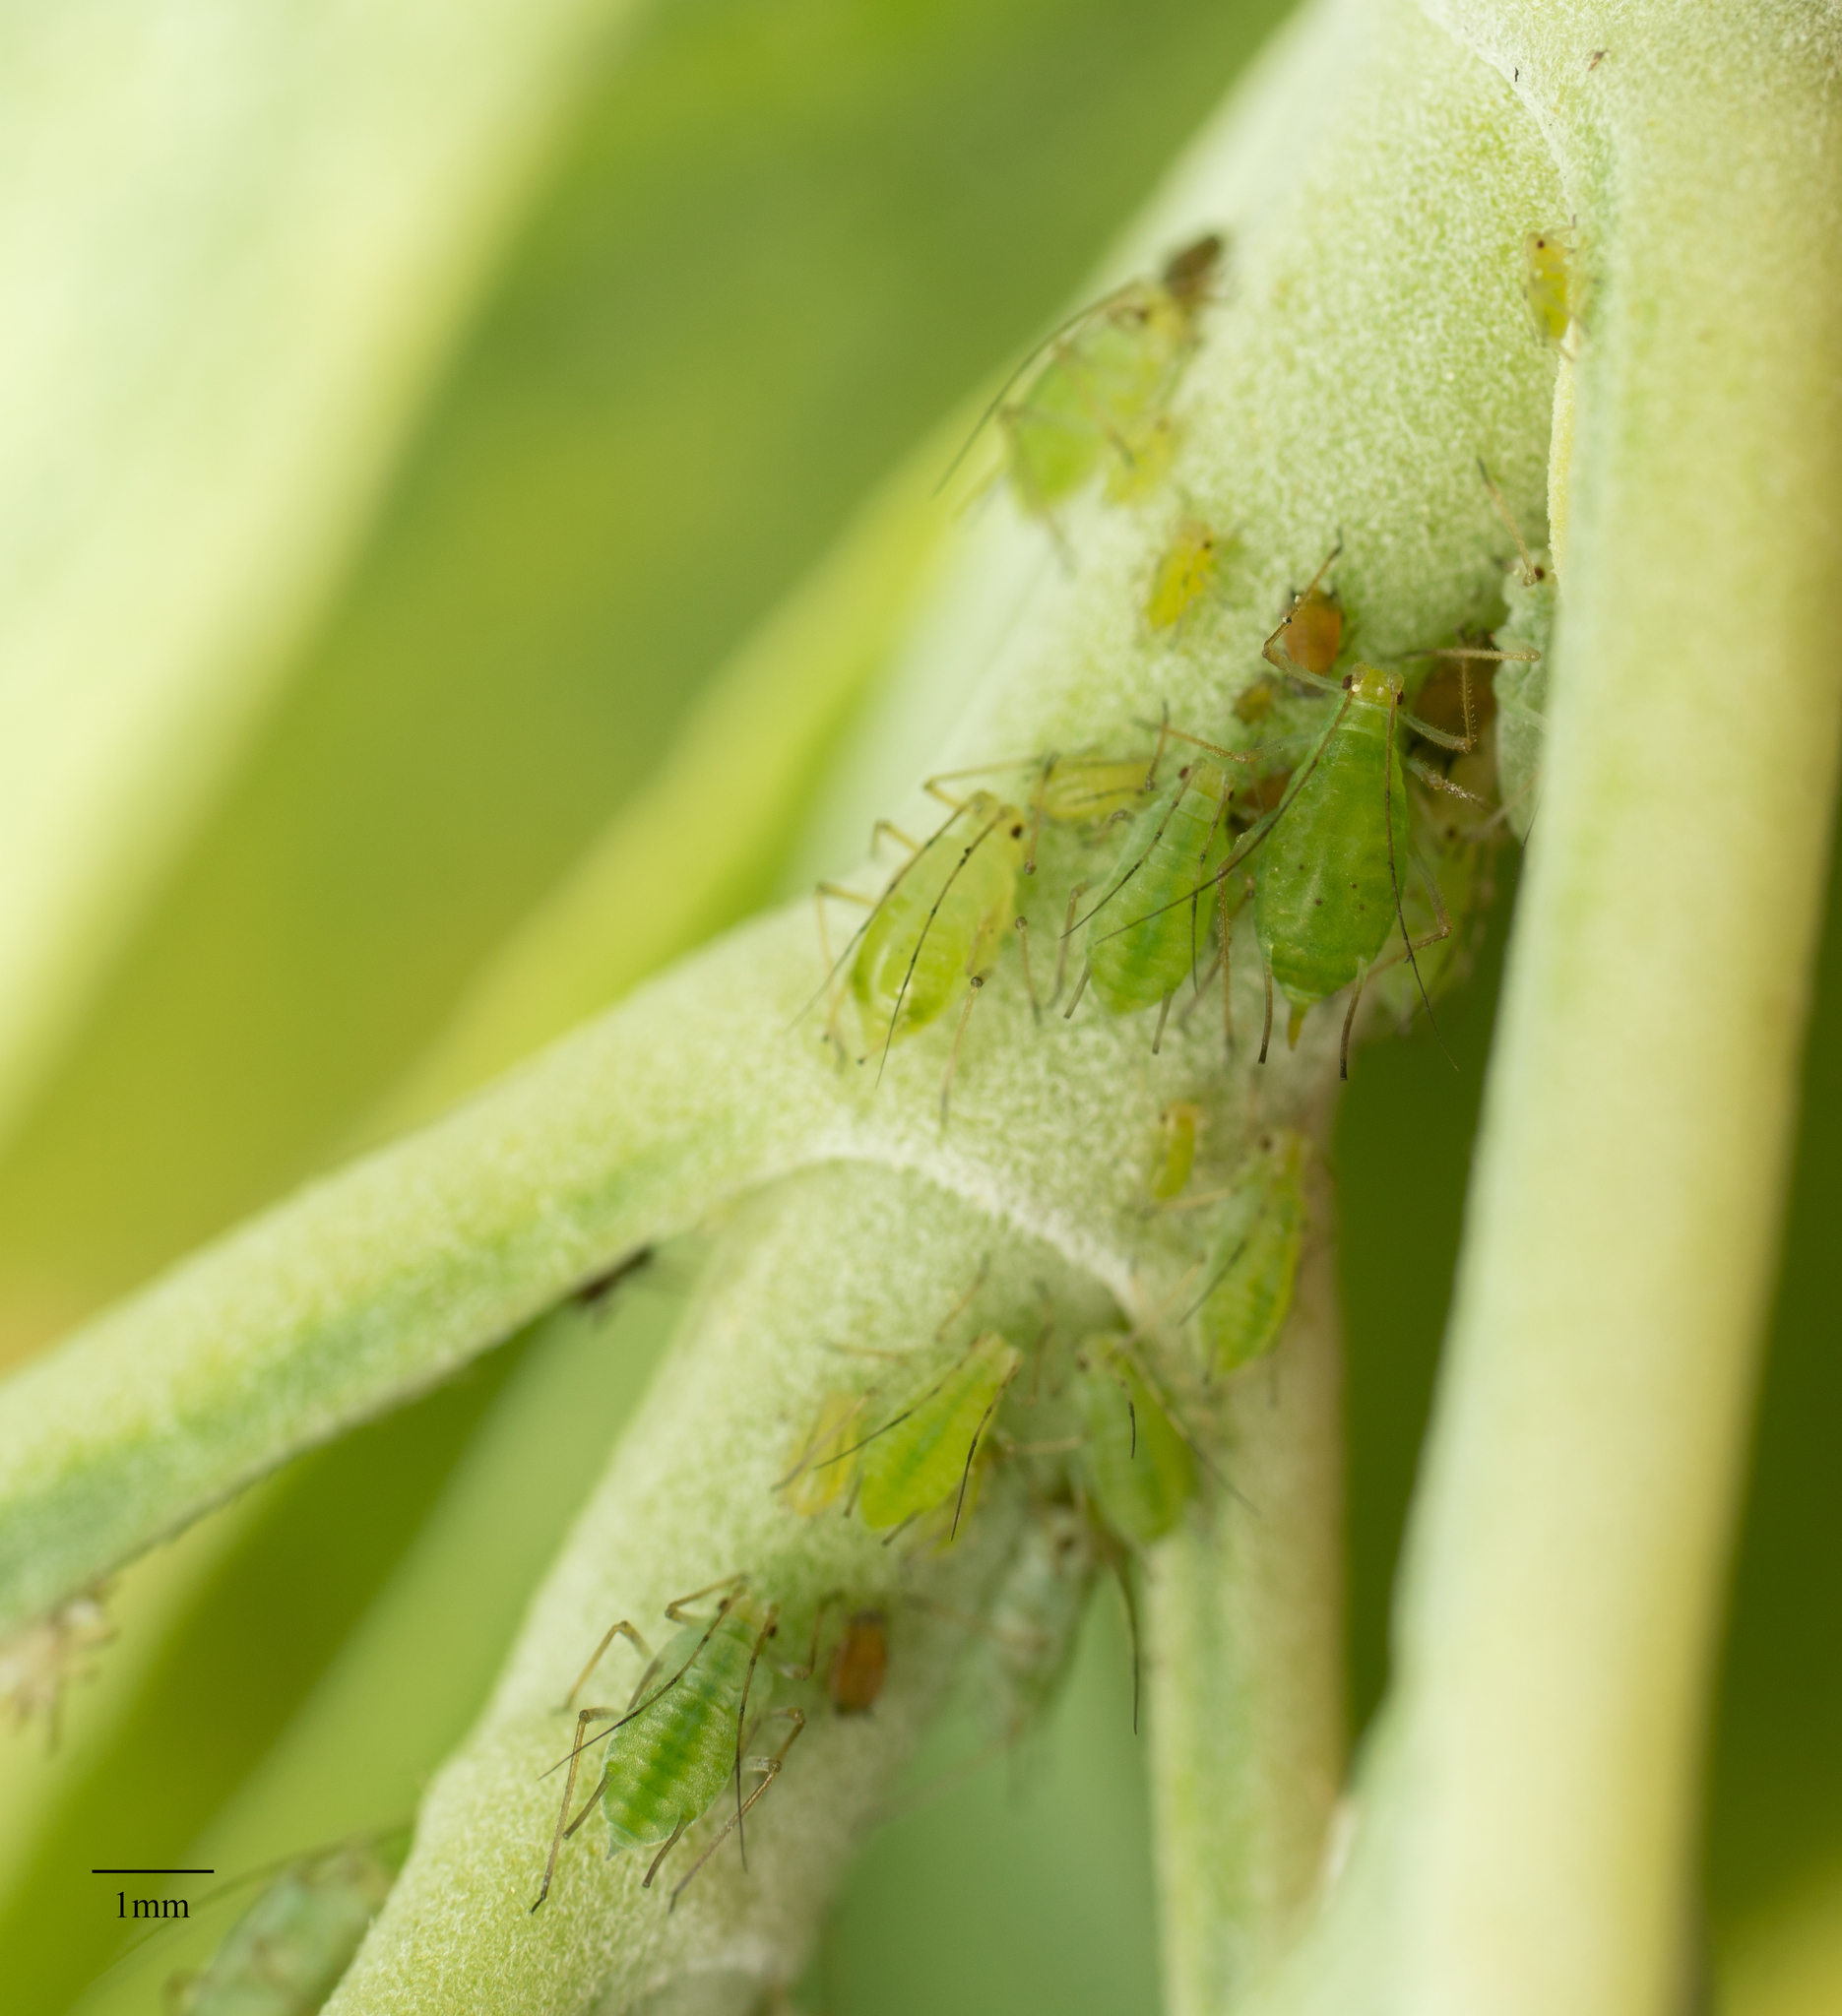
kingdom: Animalia
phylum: Arthropoda
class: Insecta
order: Hemiptera
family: Aphididae
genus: Macrosiphum
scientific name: Macrosiphum euphorbiae
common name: Potato aphid
